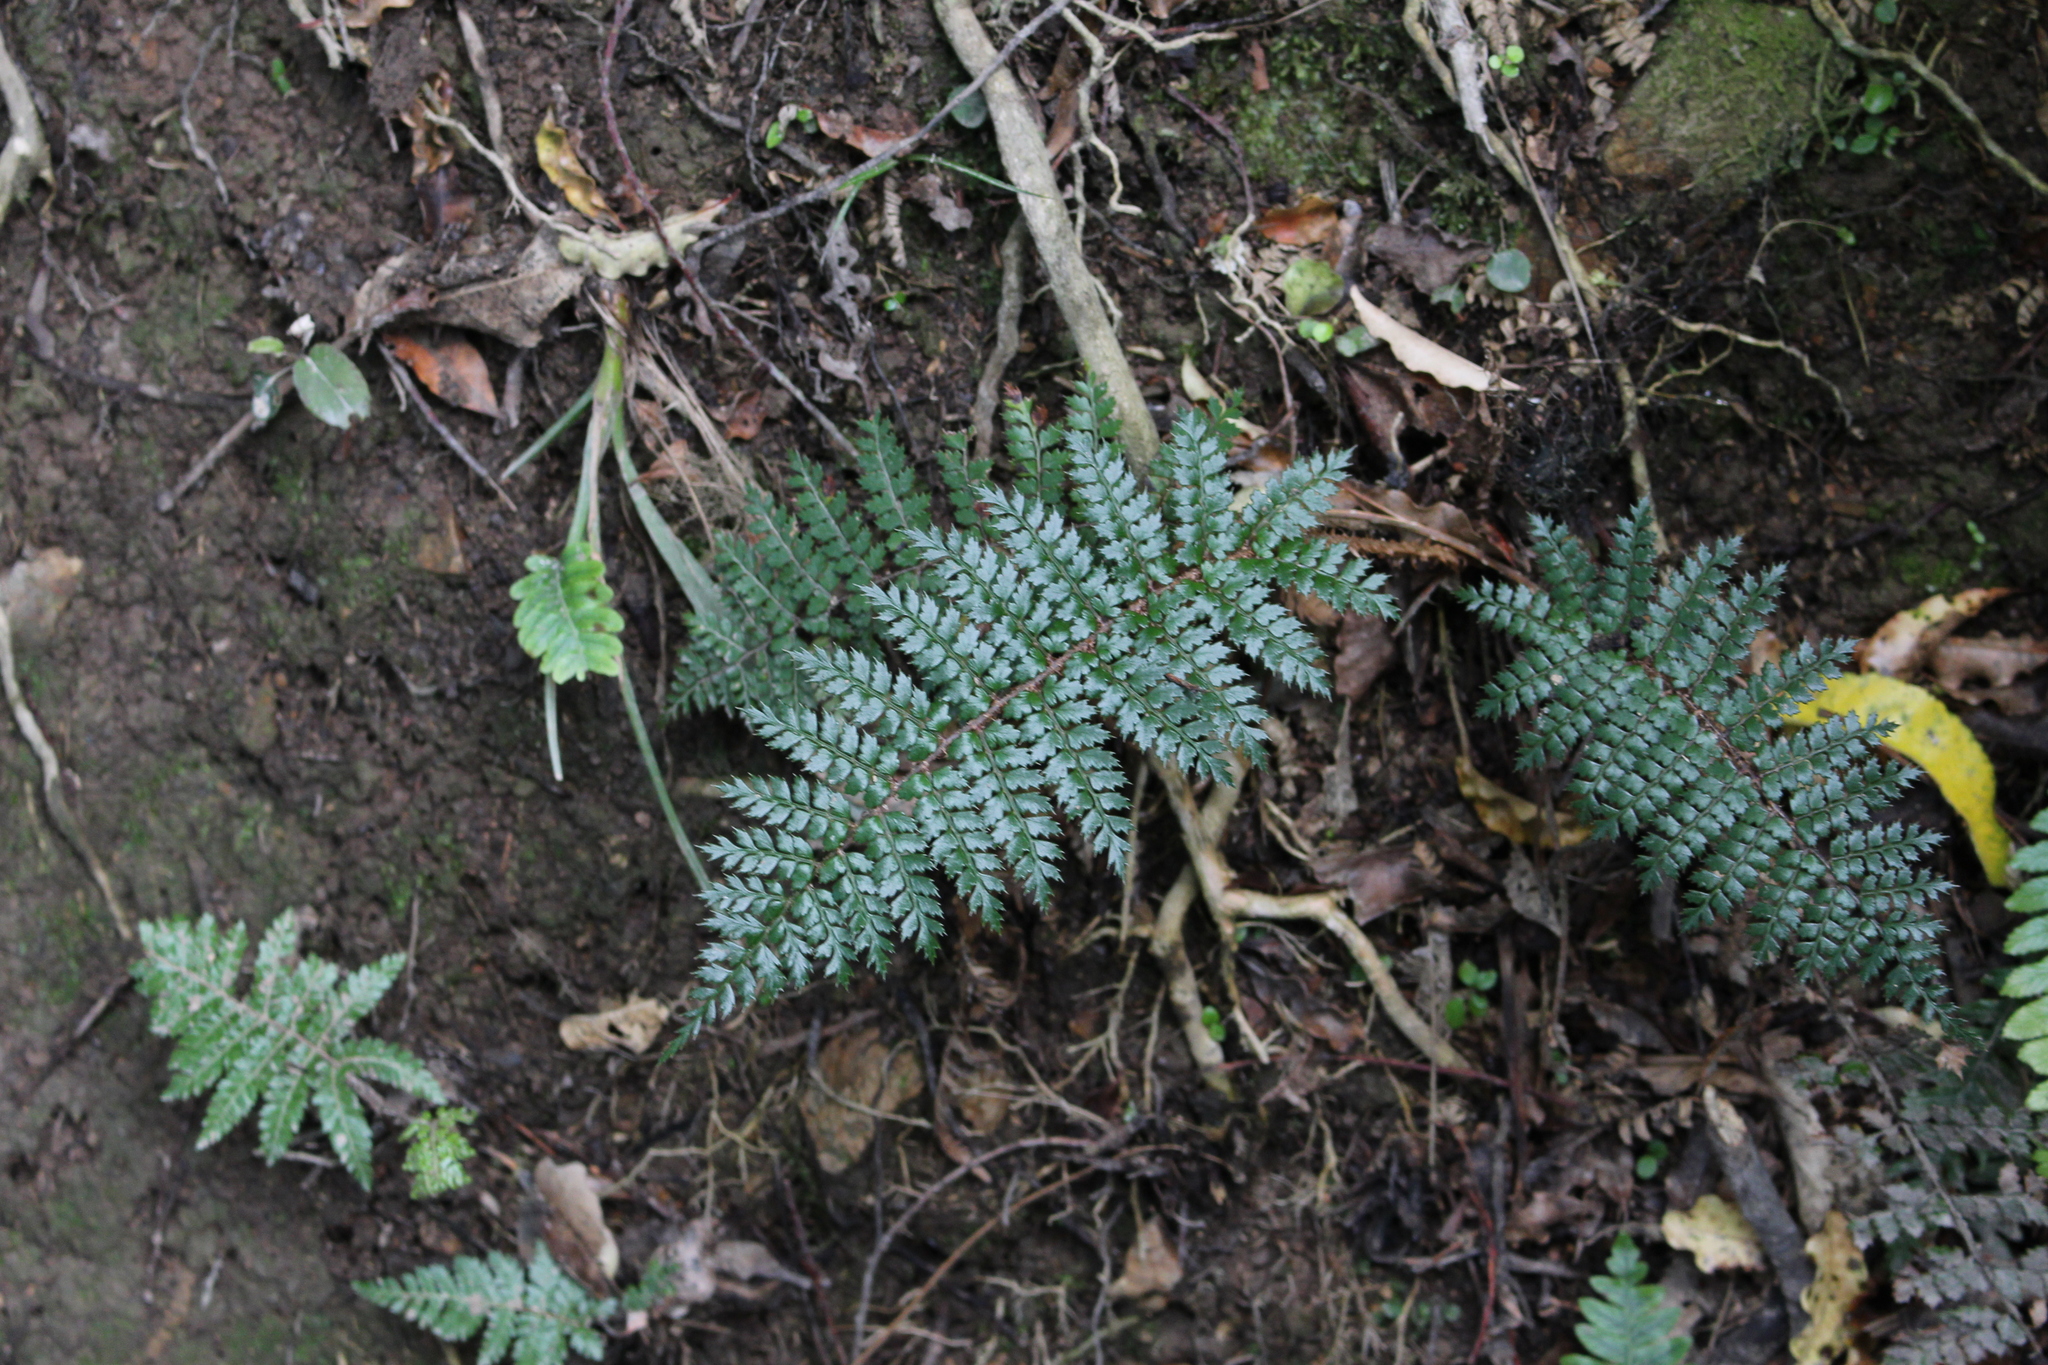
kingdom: Plantae
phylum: Tracheophyta
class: Polypodiopsida
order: Polypodiales
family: Dryopteridaceae
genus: Polystichum
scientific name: Polystichum vestitum
